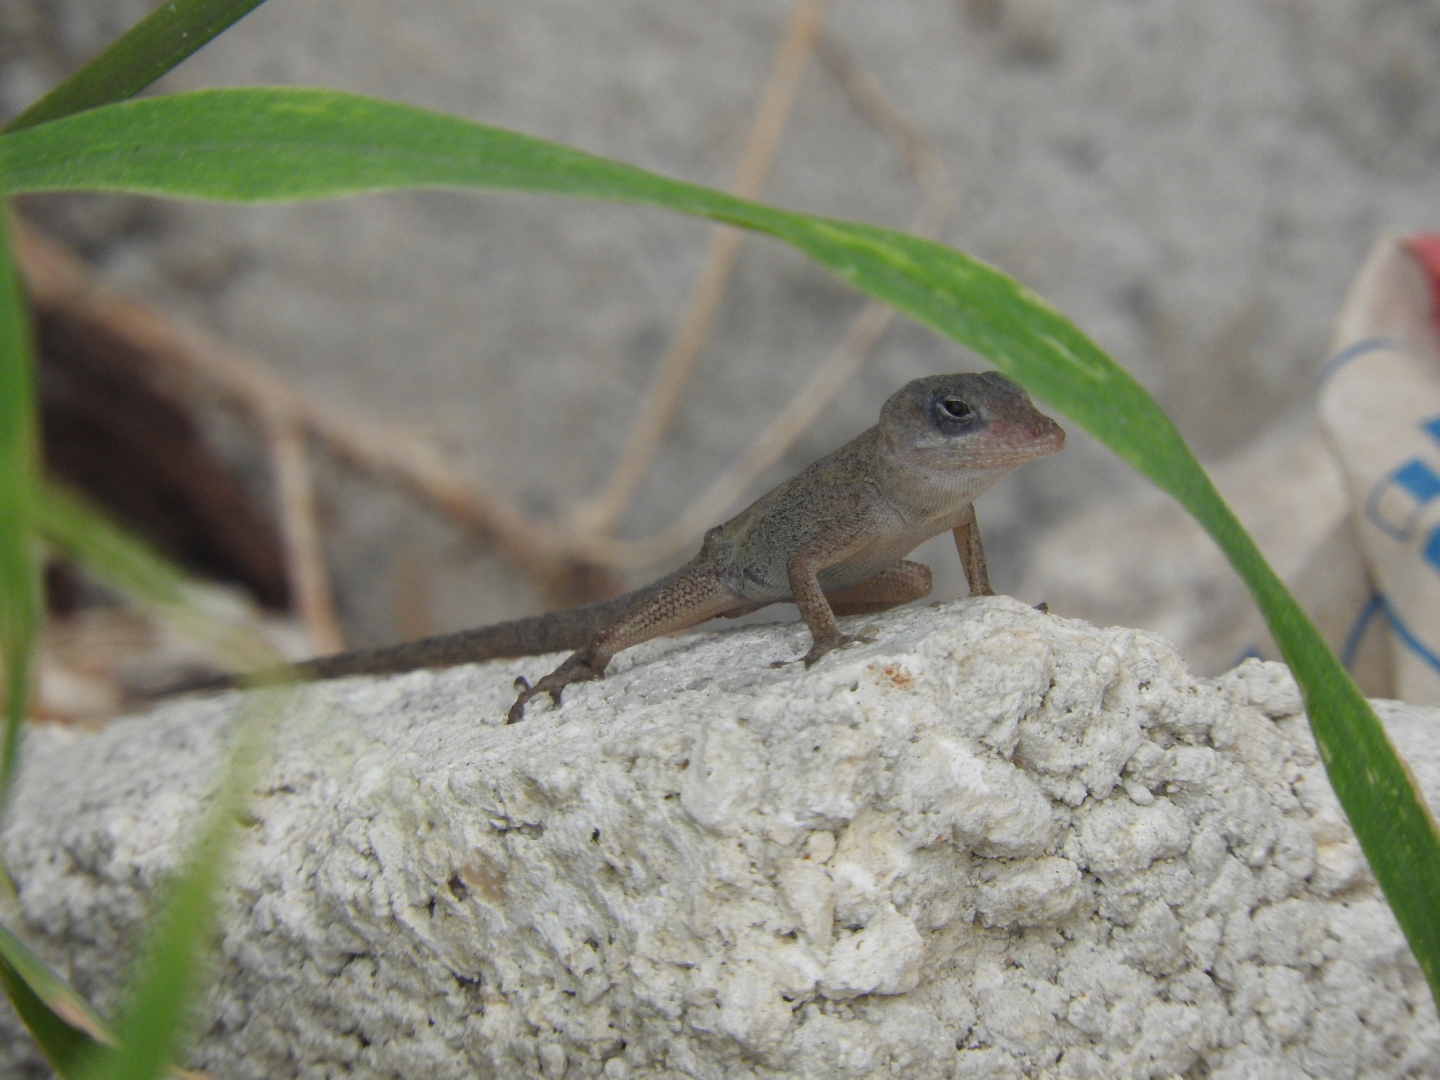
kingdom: Animalia
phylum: Chordata
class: Squamata
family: Dactyloidae
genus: Anolis
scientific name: Anolis sagrei
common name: Brown anole
